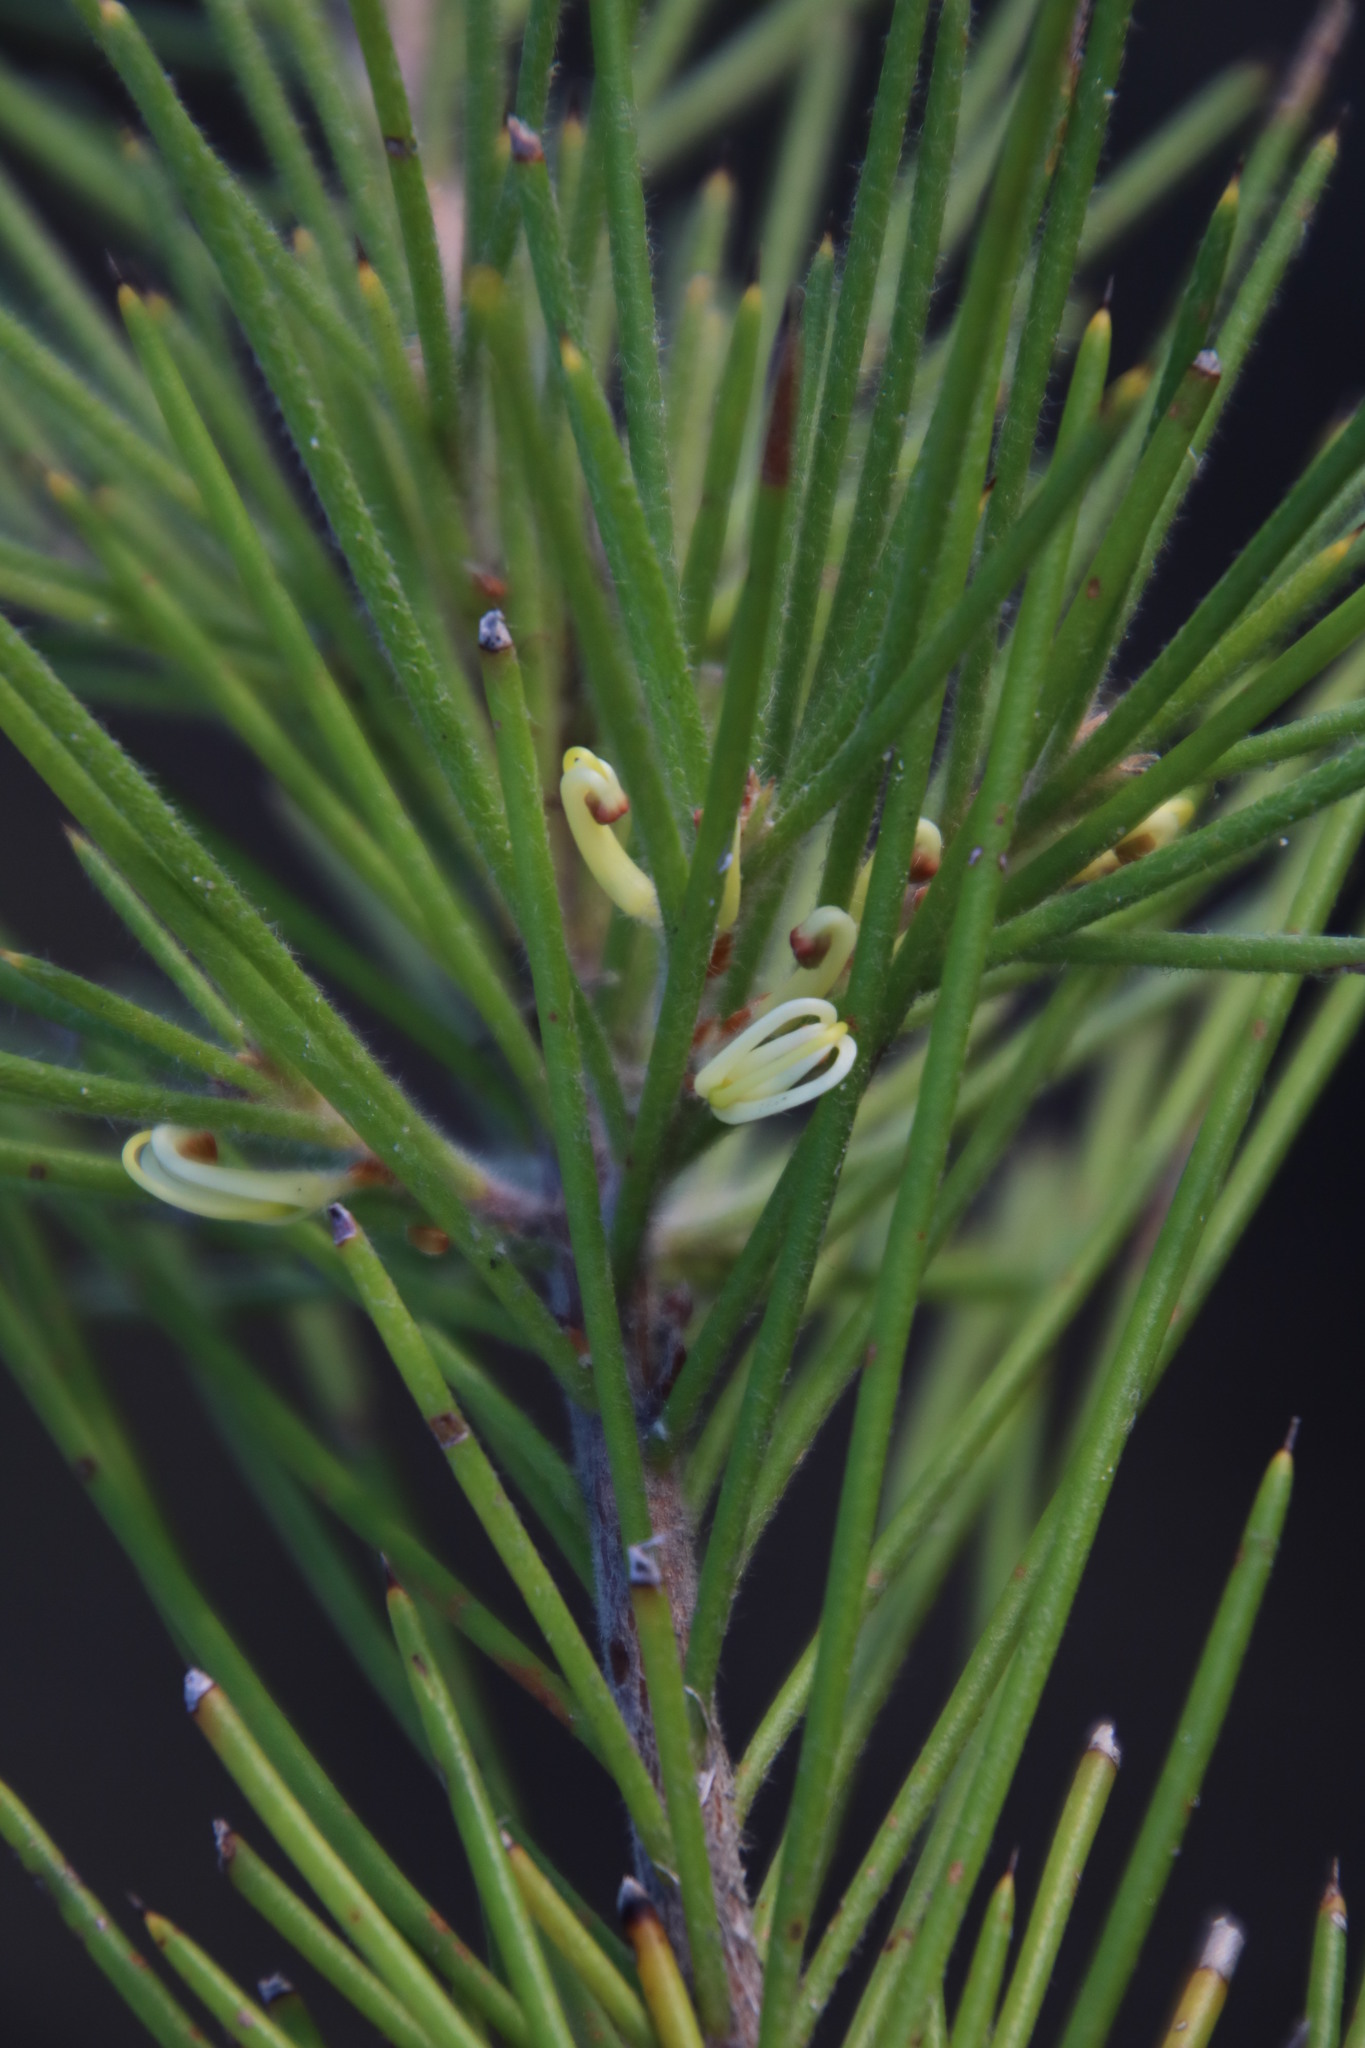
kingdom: Plantae
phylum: Tracheophyta
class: Magnoliopsida
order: Proteales
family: Proteaceae
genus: Hakea
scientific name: Hakea gibbosa
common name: Rock hakea
